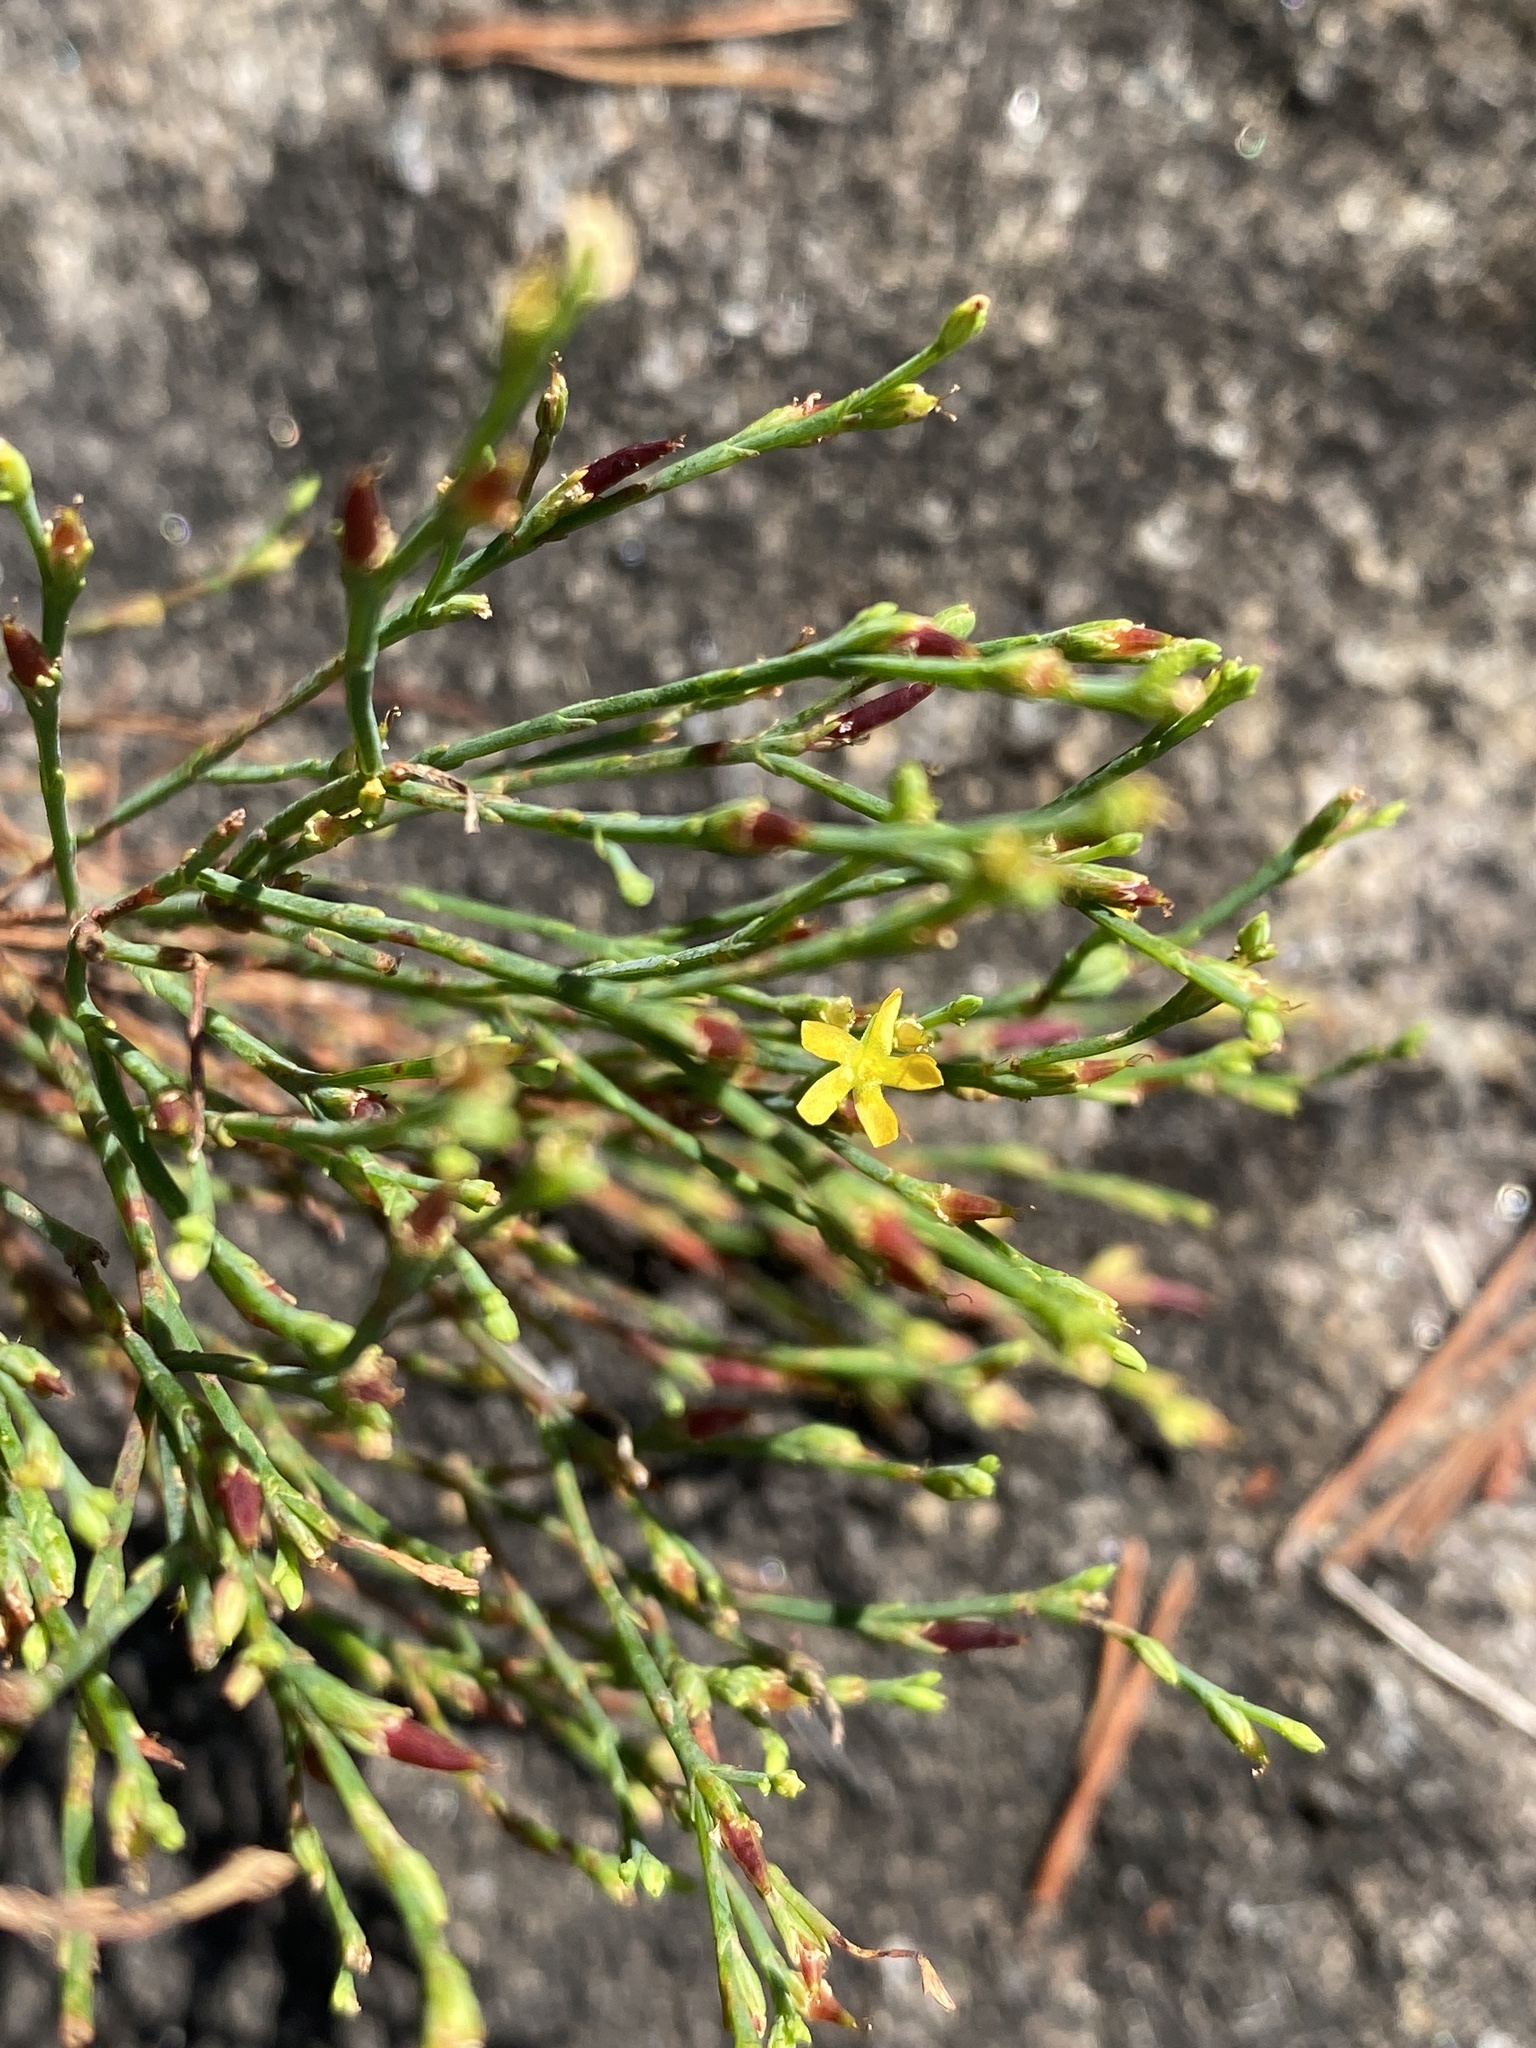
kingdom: Plantae
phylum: Tracheophyta
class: Magnoliopsida
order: Malpighiales
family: Hypericaceae
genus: Hypericum
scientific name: Hypericum gentianoides
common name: Gentian-leaved st. john's-wort
